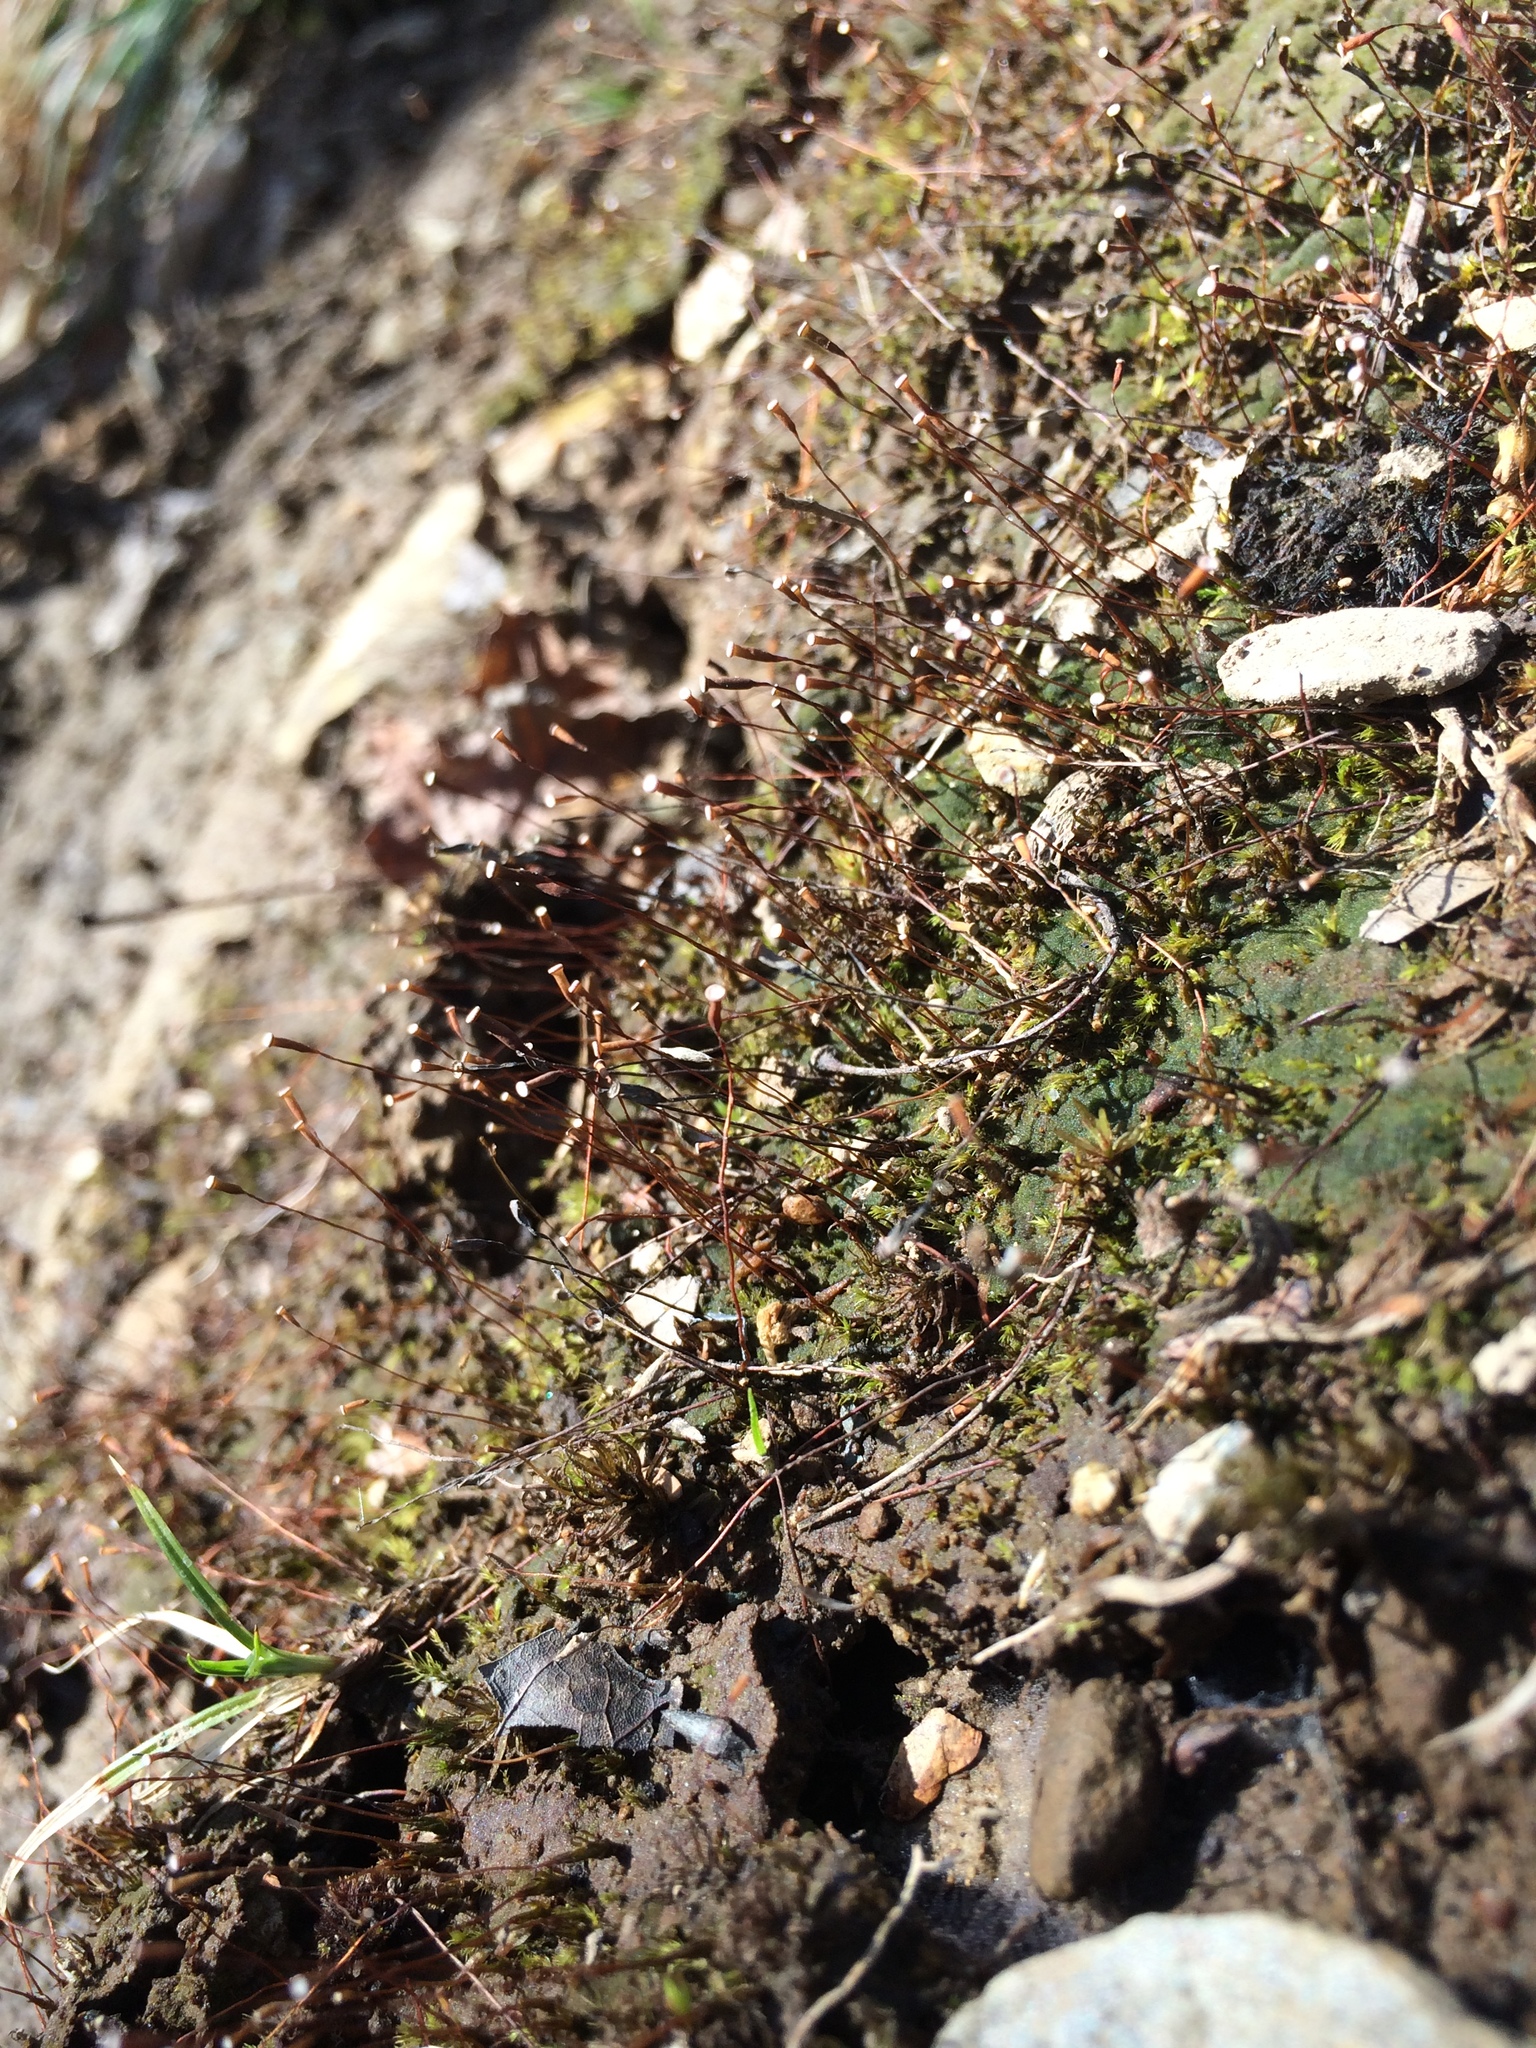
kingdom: Plantae
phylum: Bryophyta
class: Polytrichopsida
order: Polytrichales
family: Polytrichaceae
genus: Pogonatum
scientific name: Pogonatum pensilvanicum
